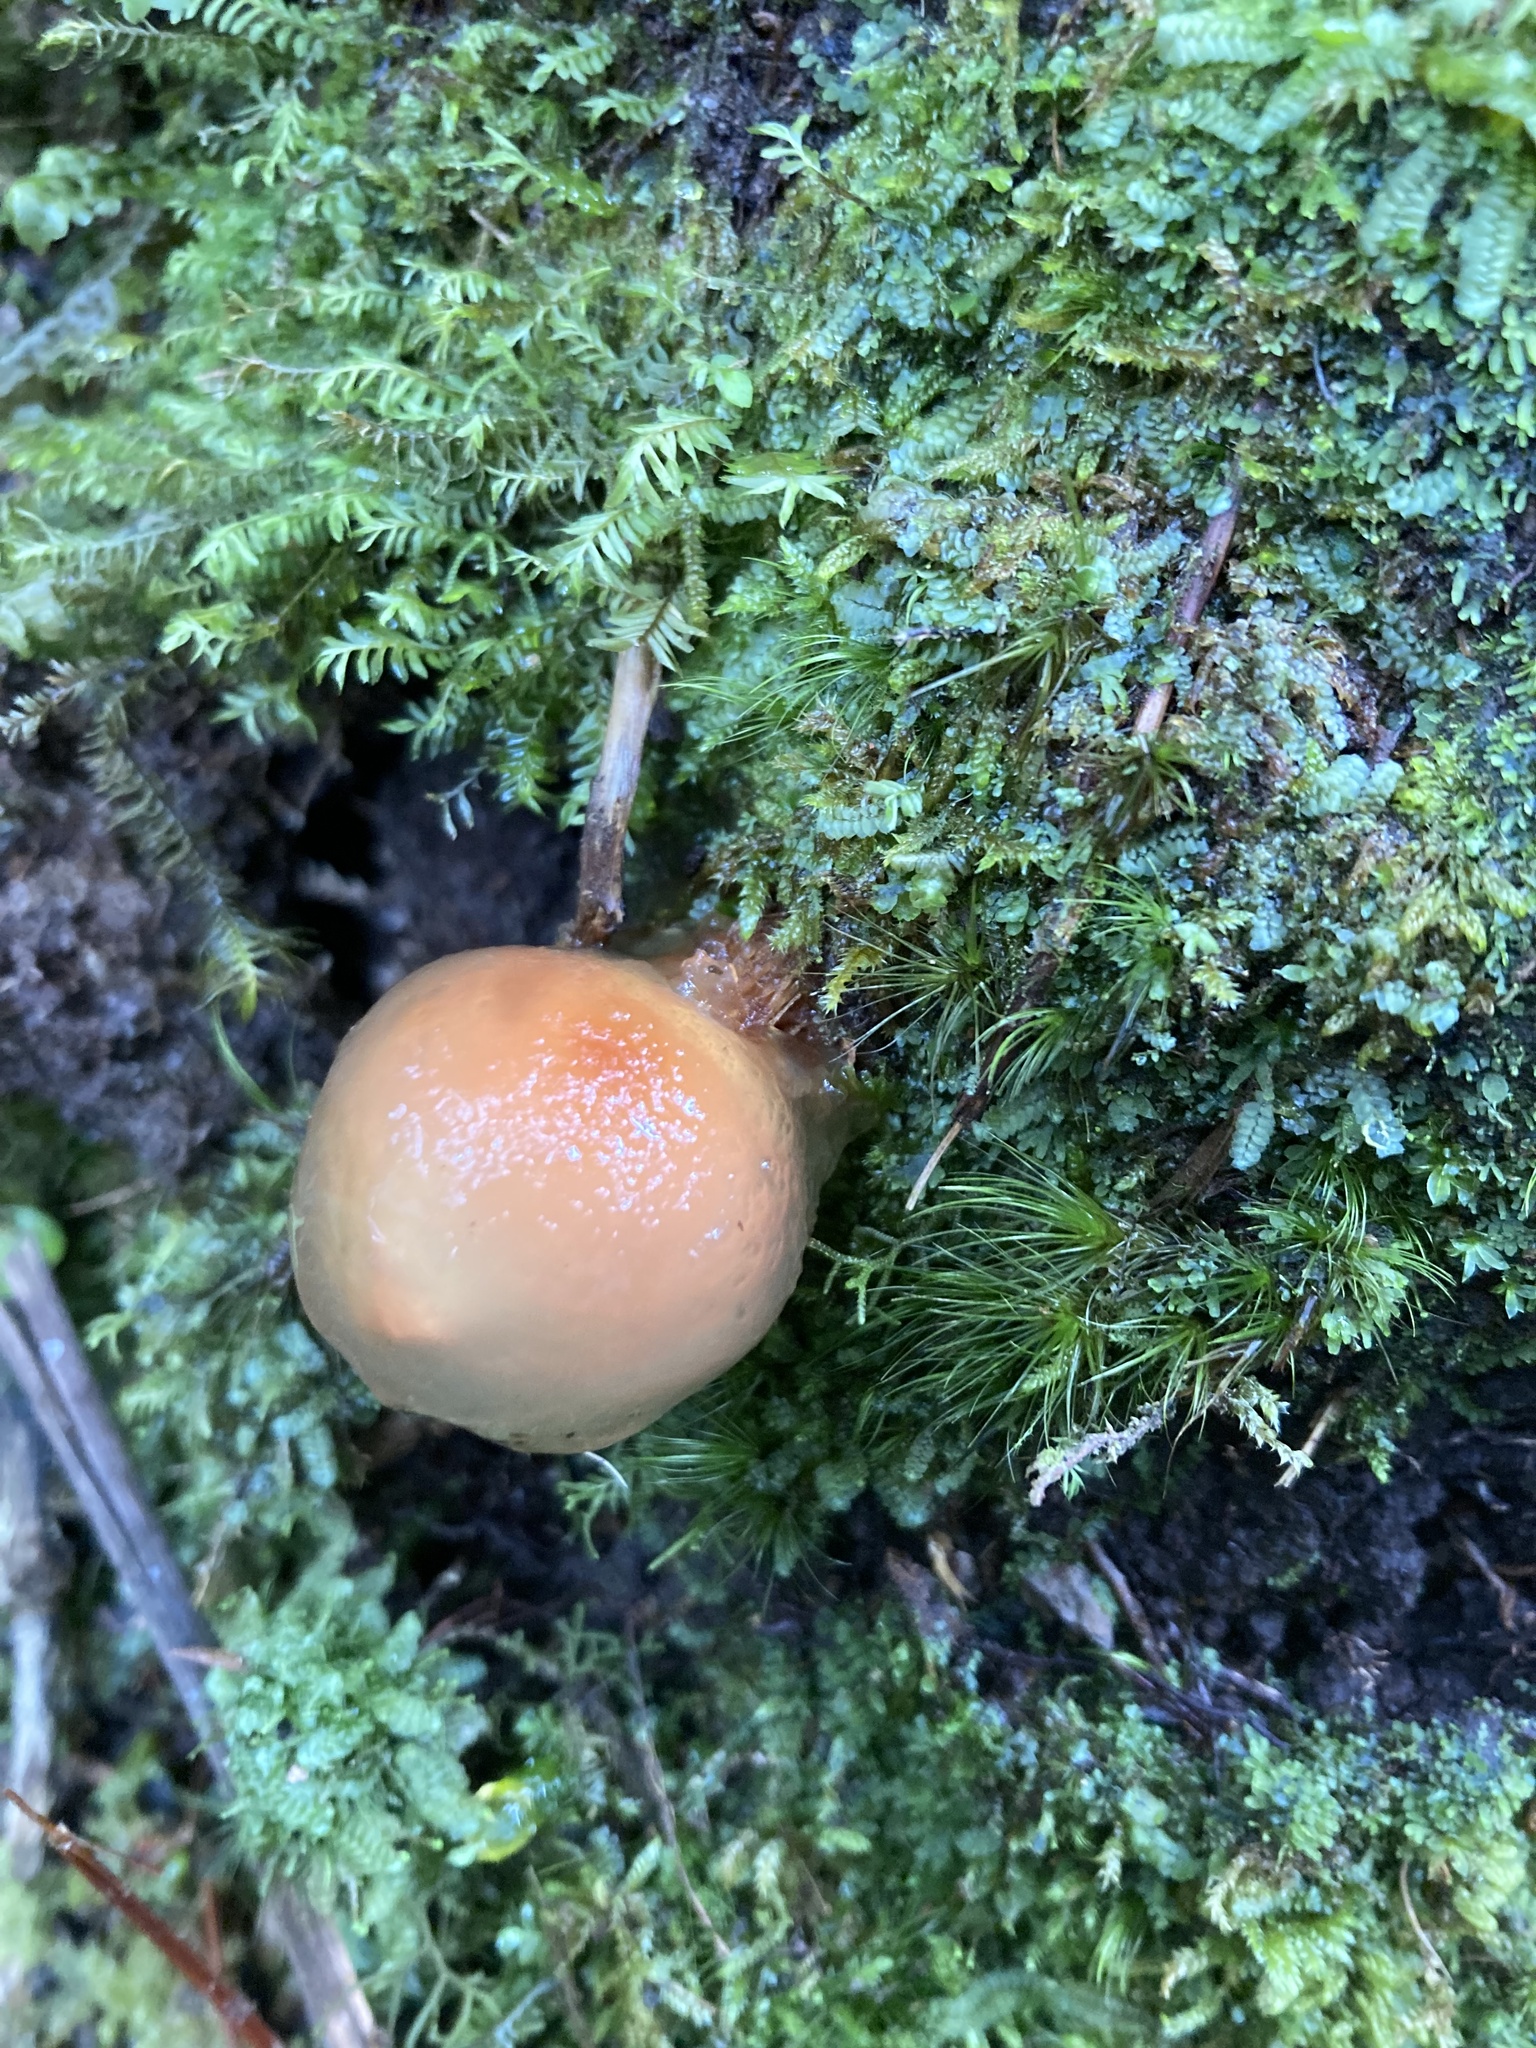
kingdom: Fungi
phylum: Basidiomycota
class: Agaricomycetes
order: Boletales
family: Calostomataceae
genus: Calostoma
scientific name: Calostoma cinnabarinum
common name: Stalked puffball-in-aspic
